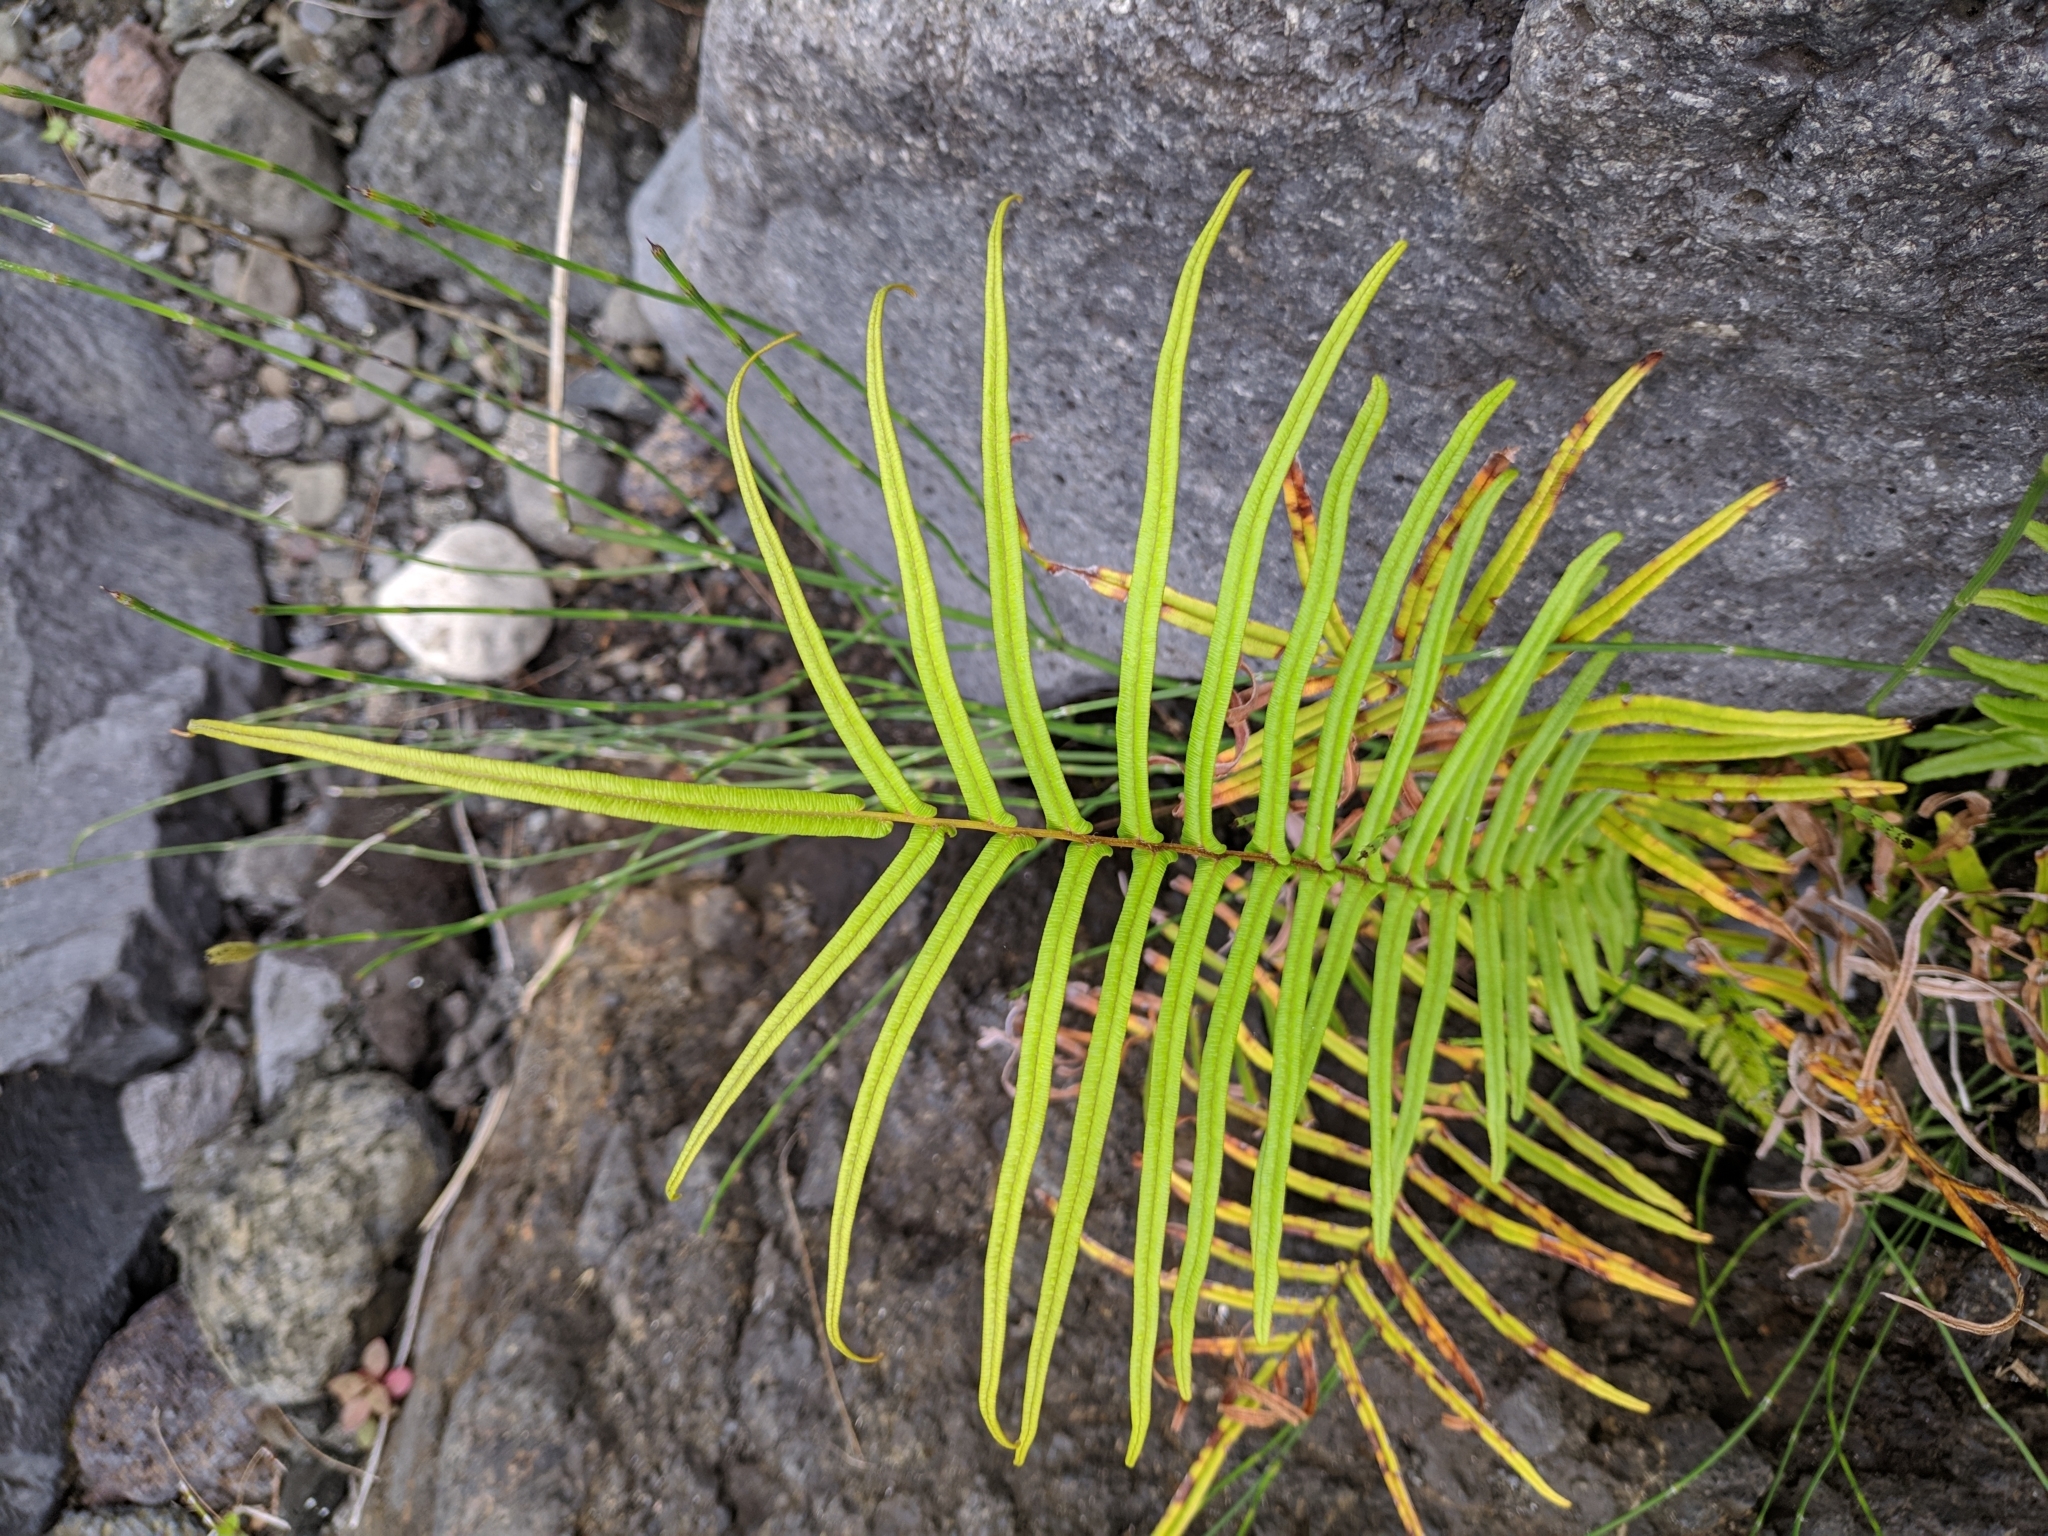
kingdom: Plantae
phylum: Tracheophyta
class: Polypodiopsida
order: Polypodiales
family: Pteridaceae
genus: Pteris
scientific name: Pteris vittata
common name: Ladder brake
